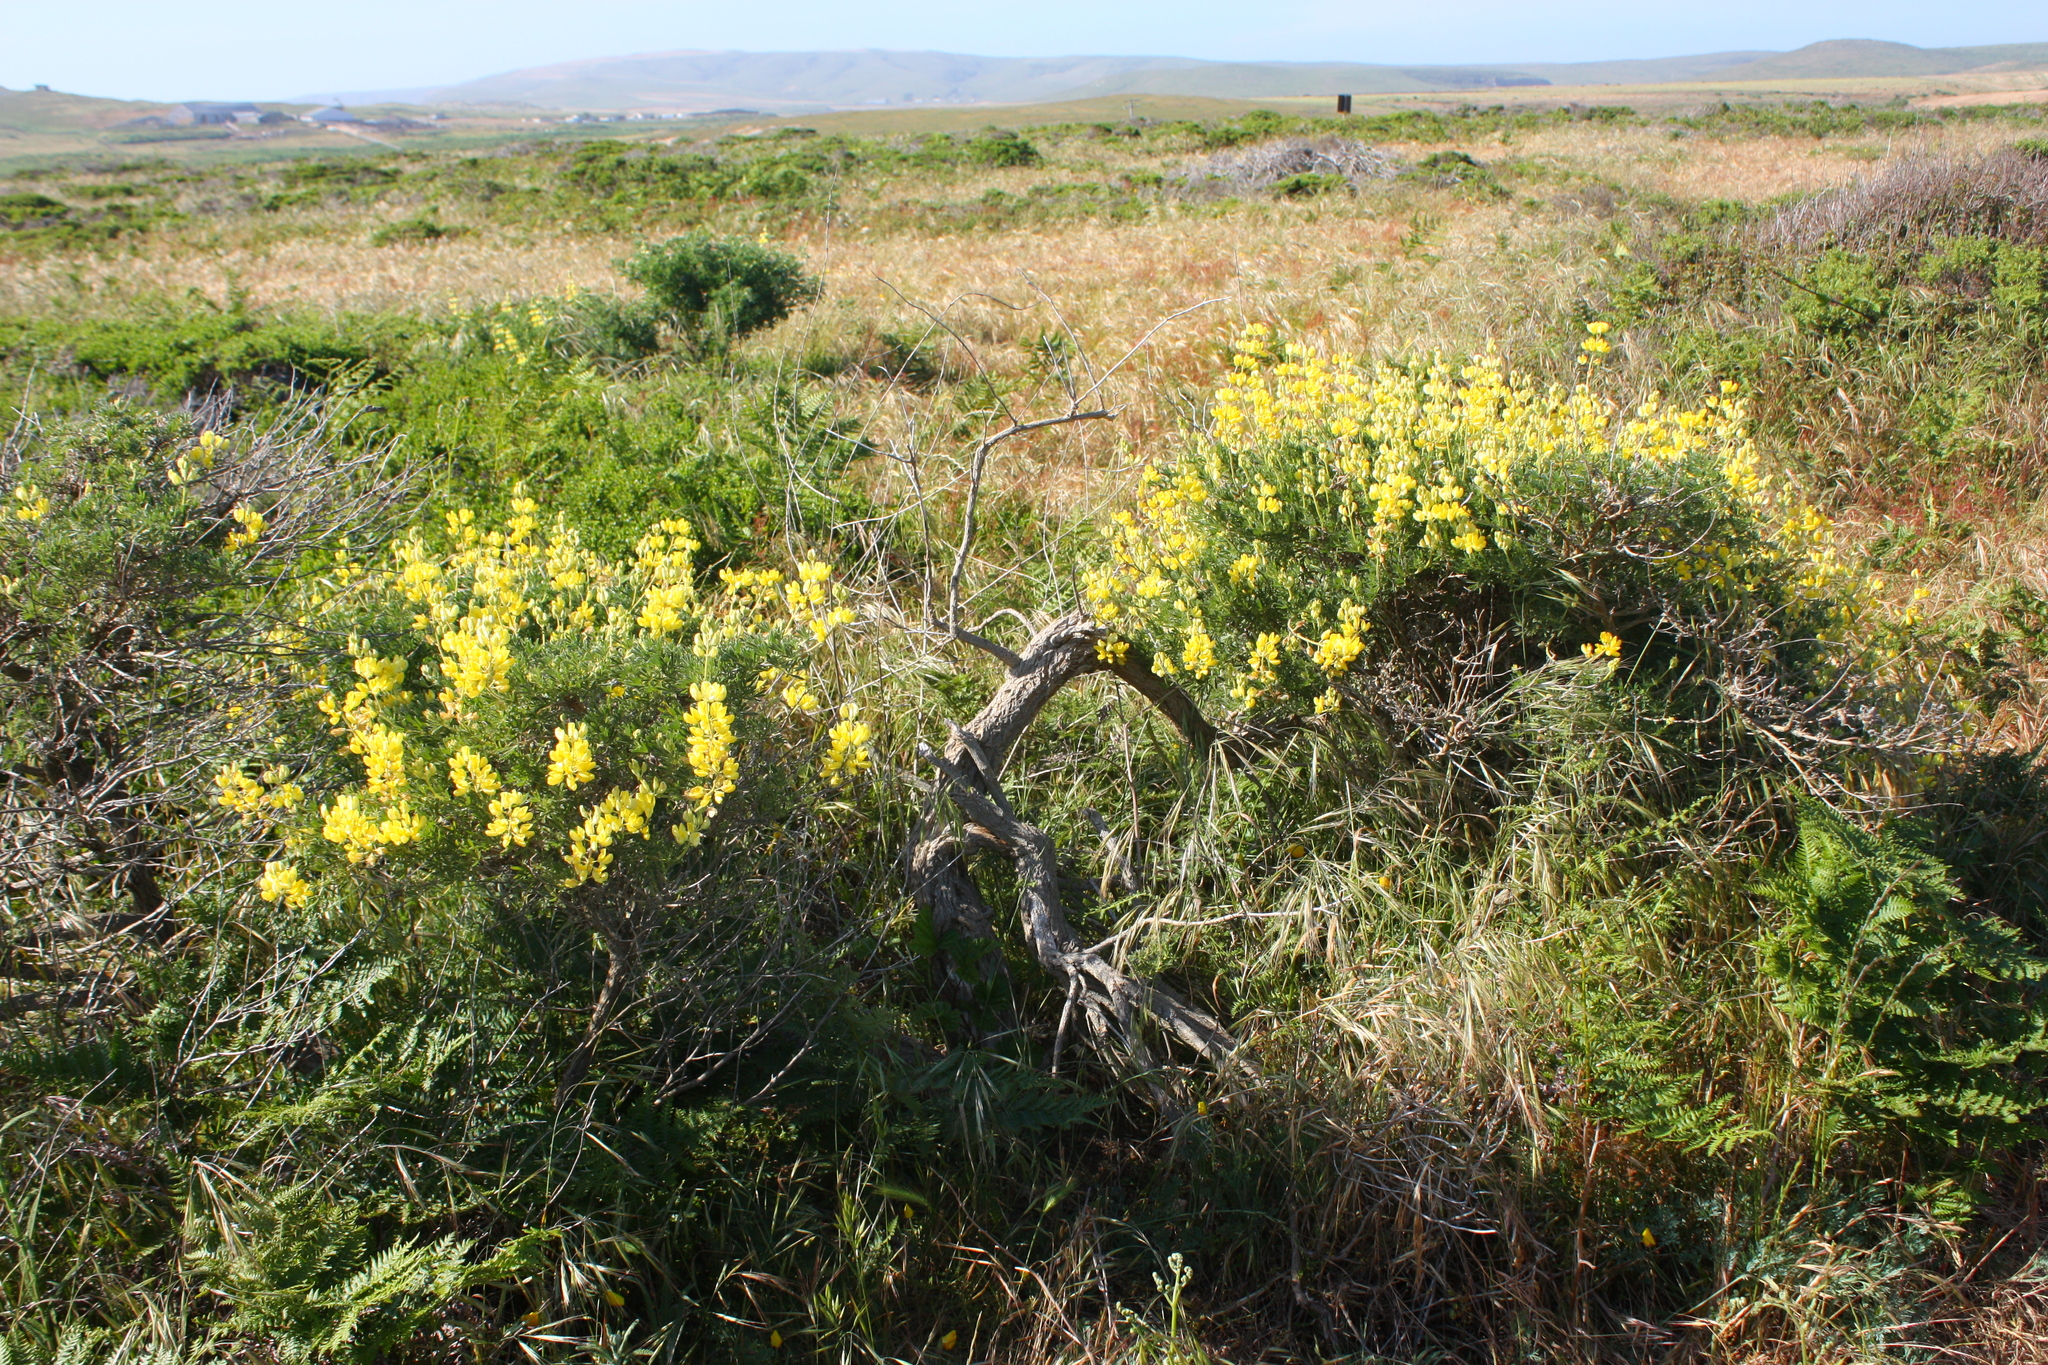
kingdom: Plantae
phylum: Tracheophyta
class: Magnoliopsida
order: Fabales
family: Fabaceae
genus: Lupinus
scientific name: Lupinus arboreus
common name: Yellow bush lupine
